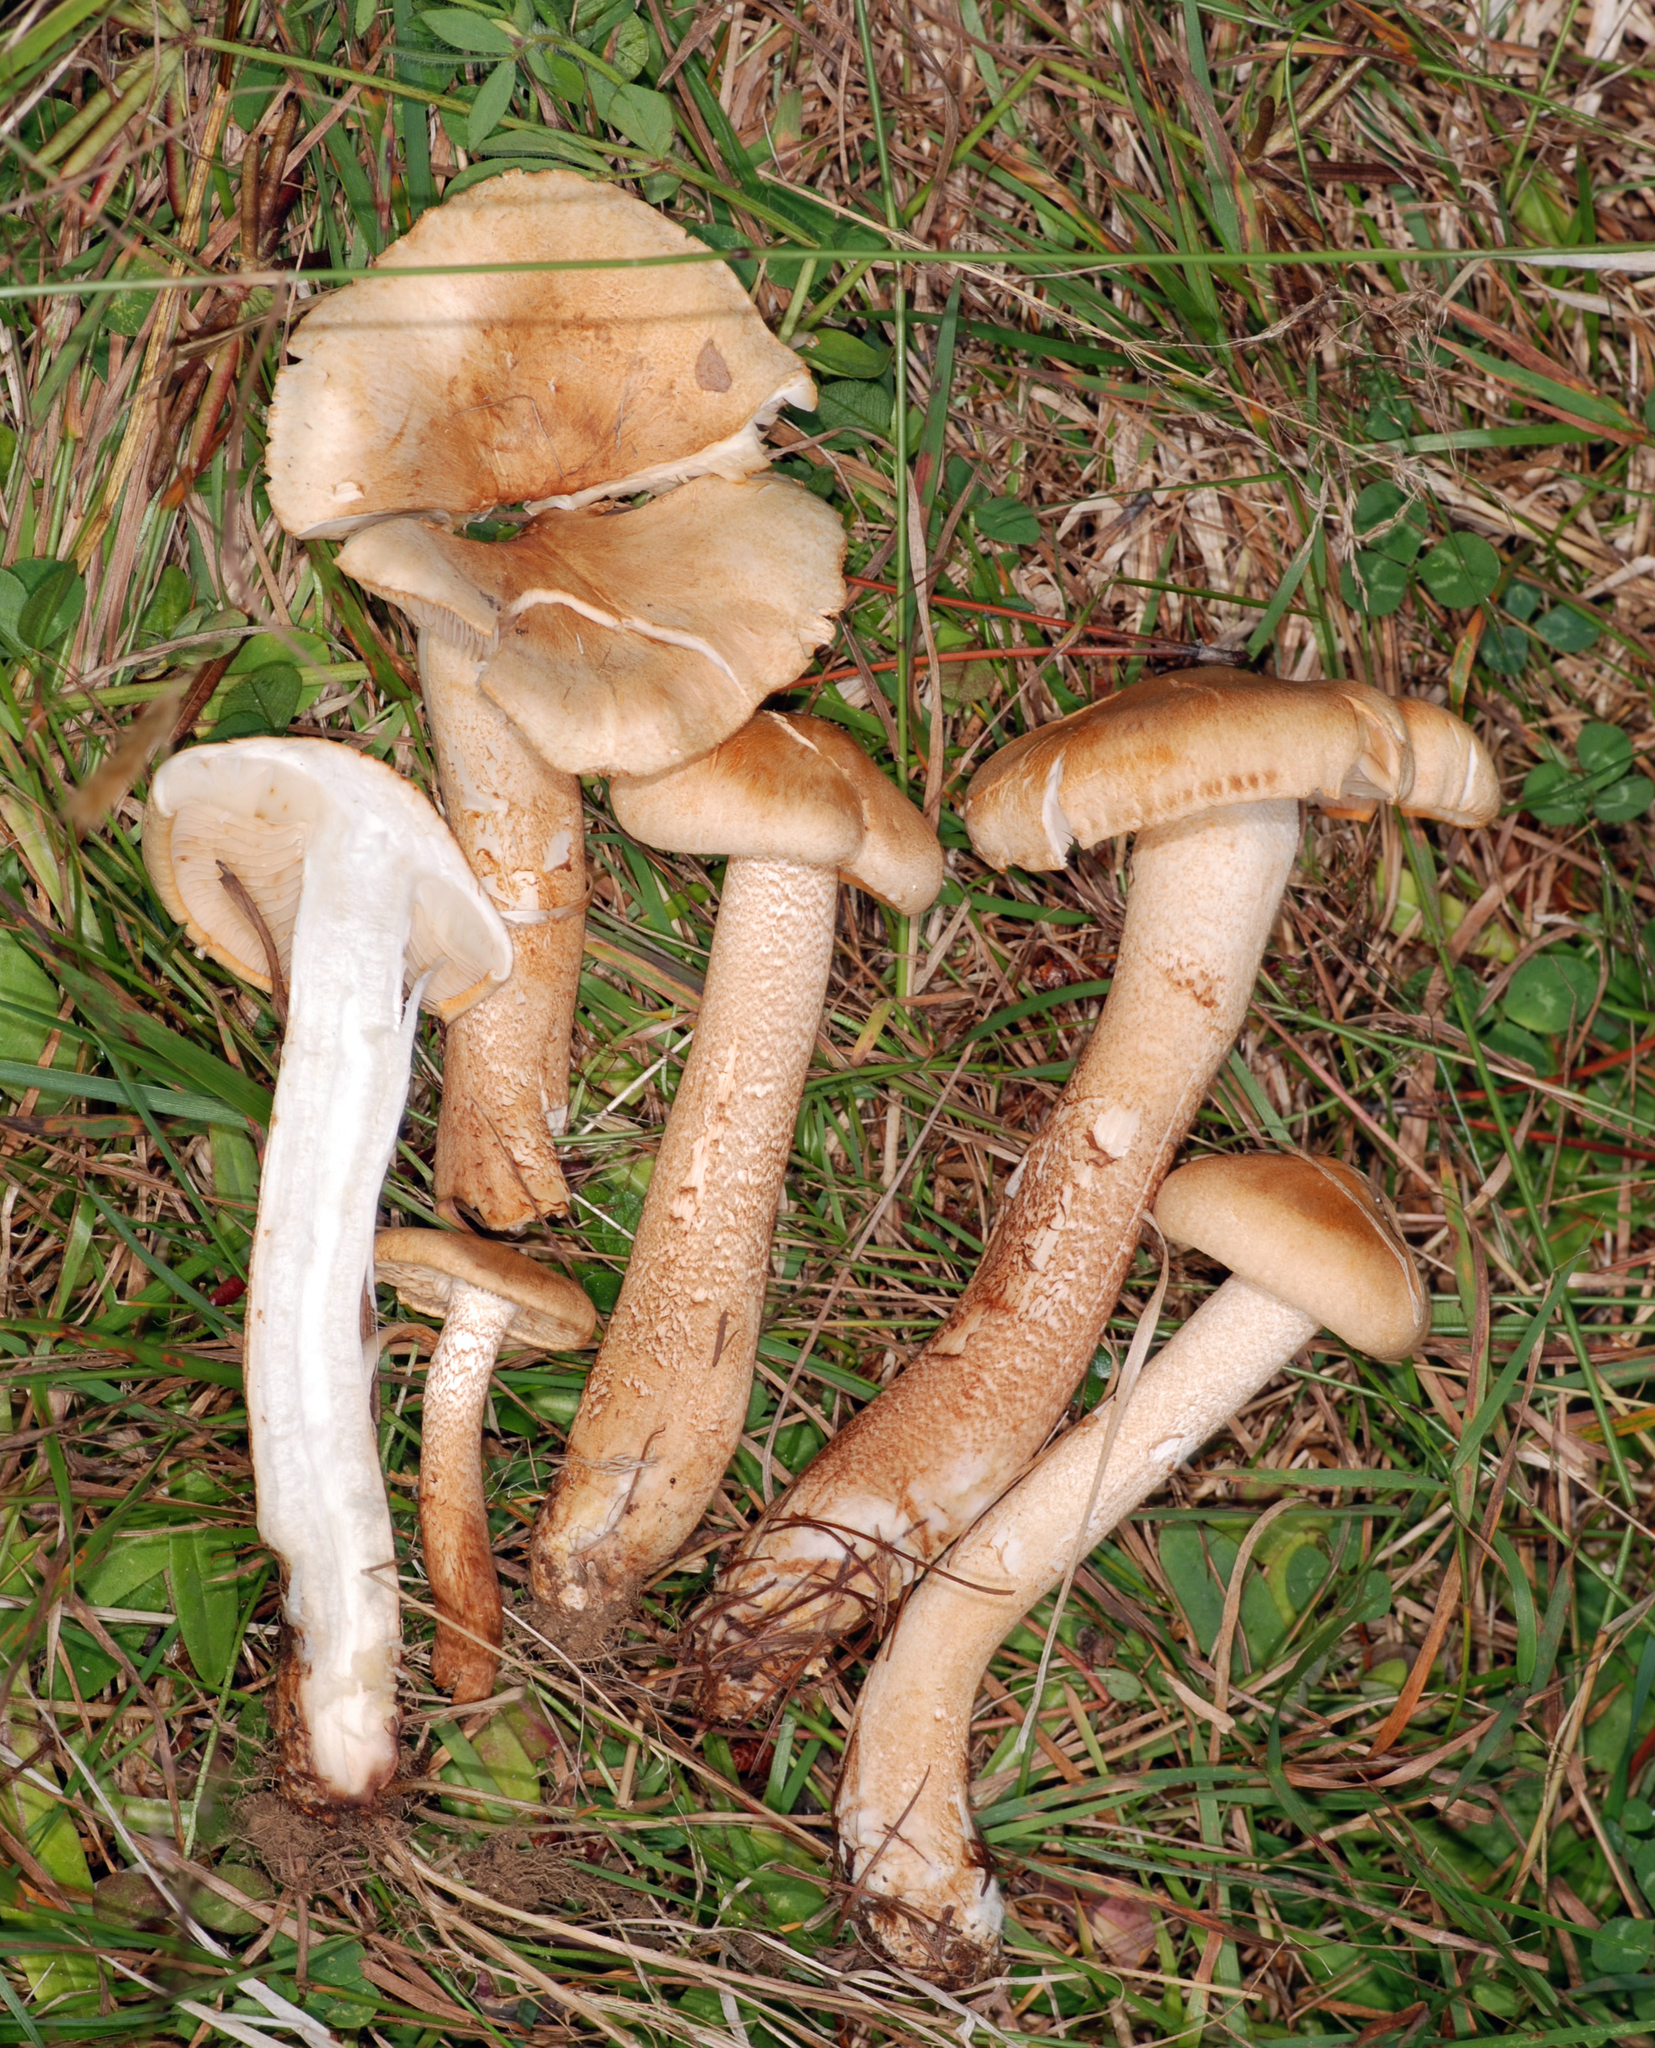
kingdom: Fungi
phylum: Basidiomycota
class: Agaricomycetes
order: Agaricales
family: Tricholomataceae
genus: Tricholoma
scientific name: Tricholoma psammopus
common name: Larch knight
